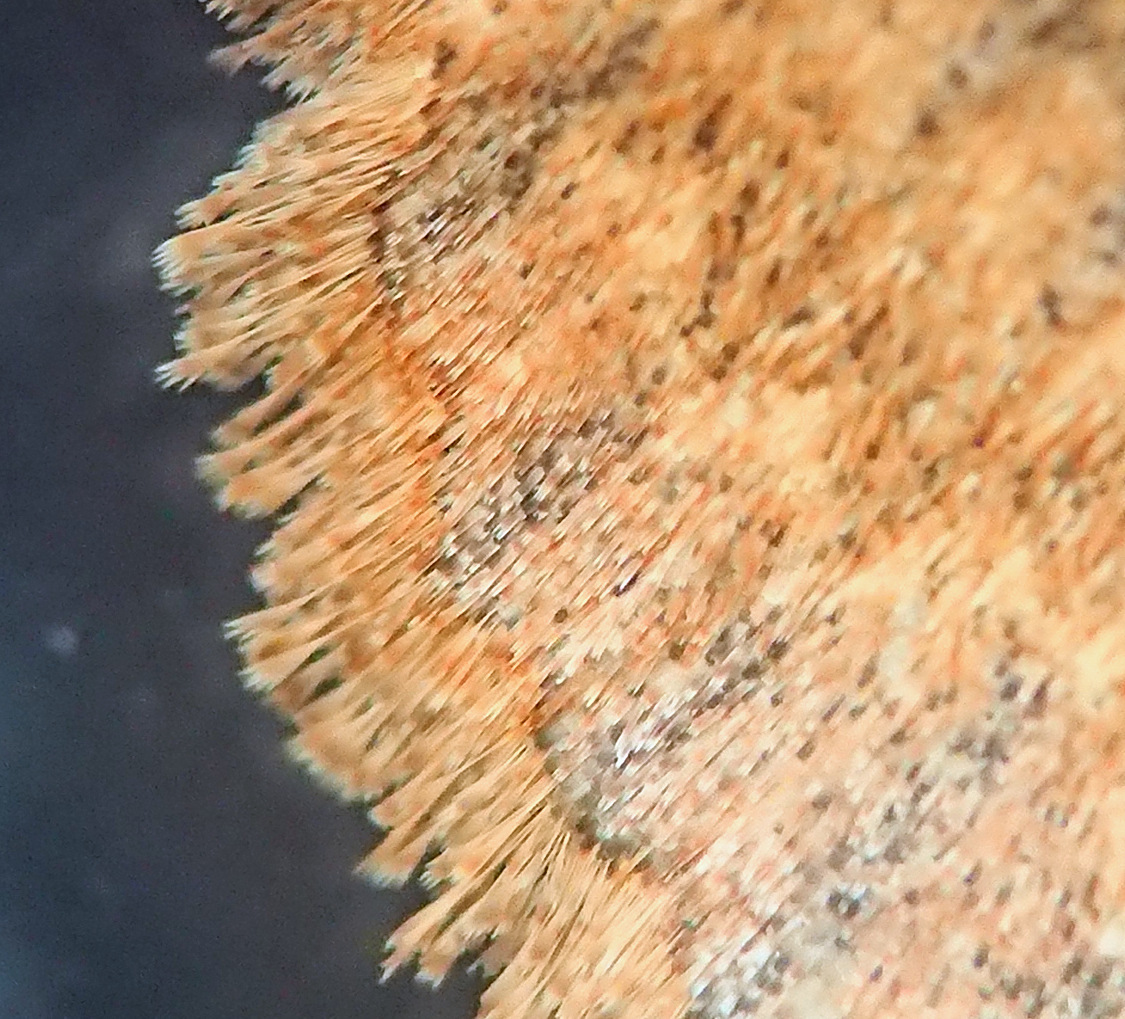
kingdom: Animalia
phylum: Arthropoda
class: Insecta
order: Lepidoptera
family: Noctuidae
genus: Eupsilia
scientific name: Eupsilia vinulenta
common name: Straight-toothed sallow
